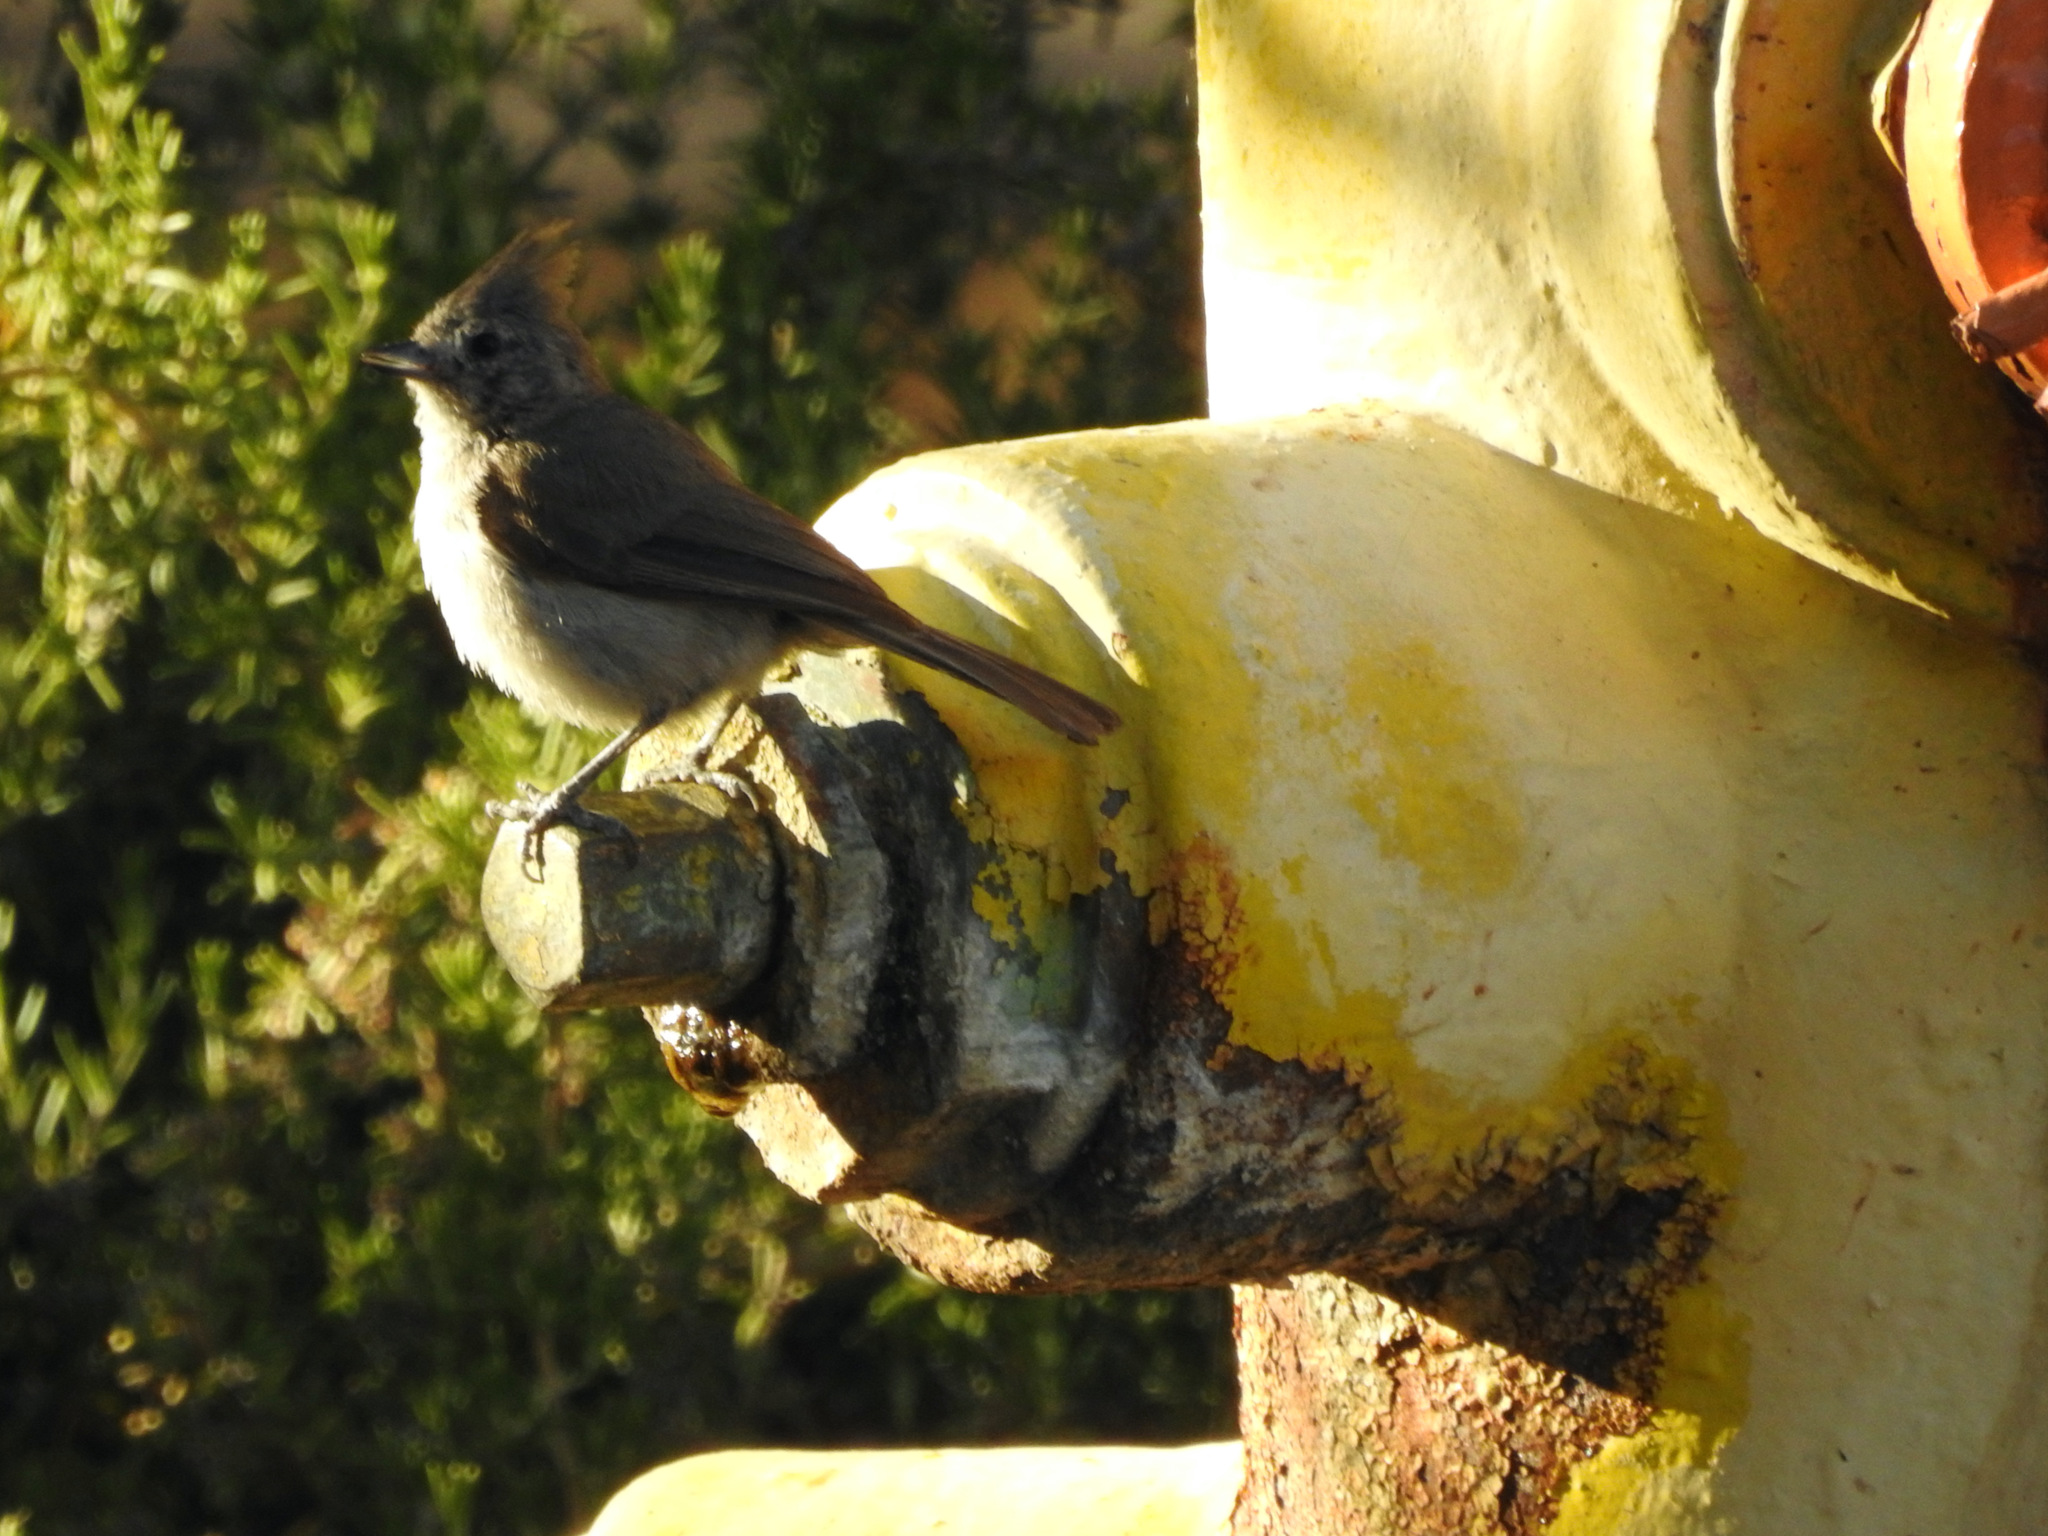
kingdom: Animalia
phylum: Chordata
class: Aves
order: Passeriformes
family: Paridae
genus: Baeolophus
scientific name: Baeolophus inornatus
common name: Oak titmouse
